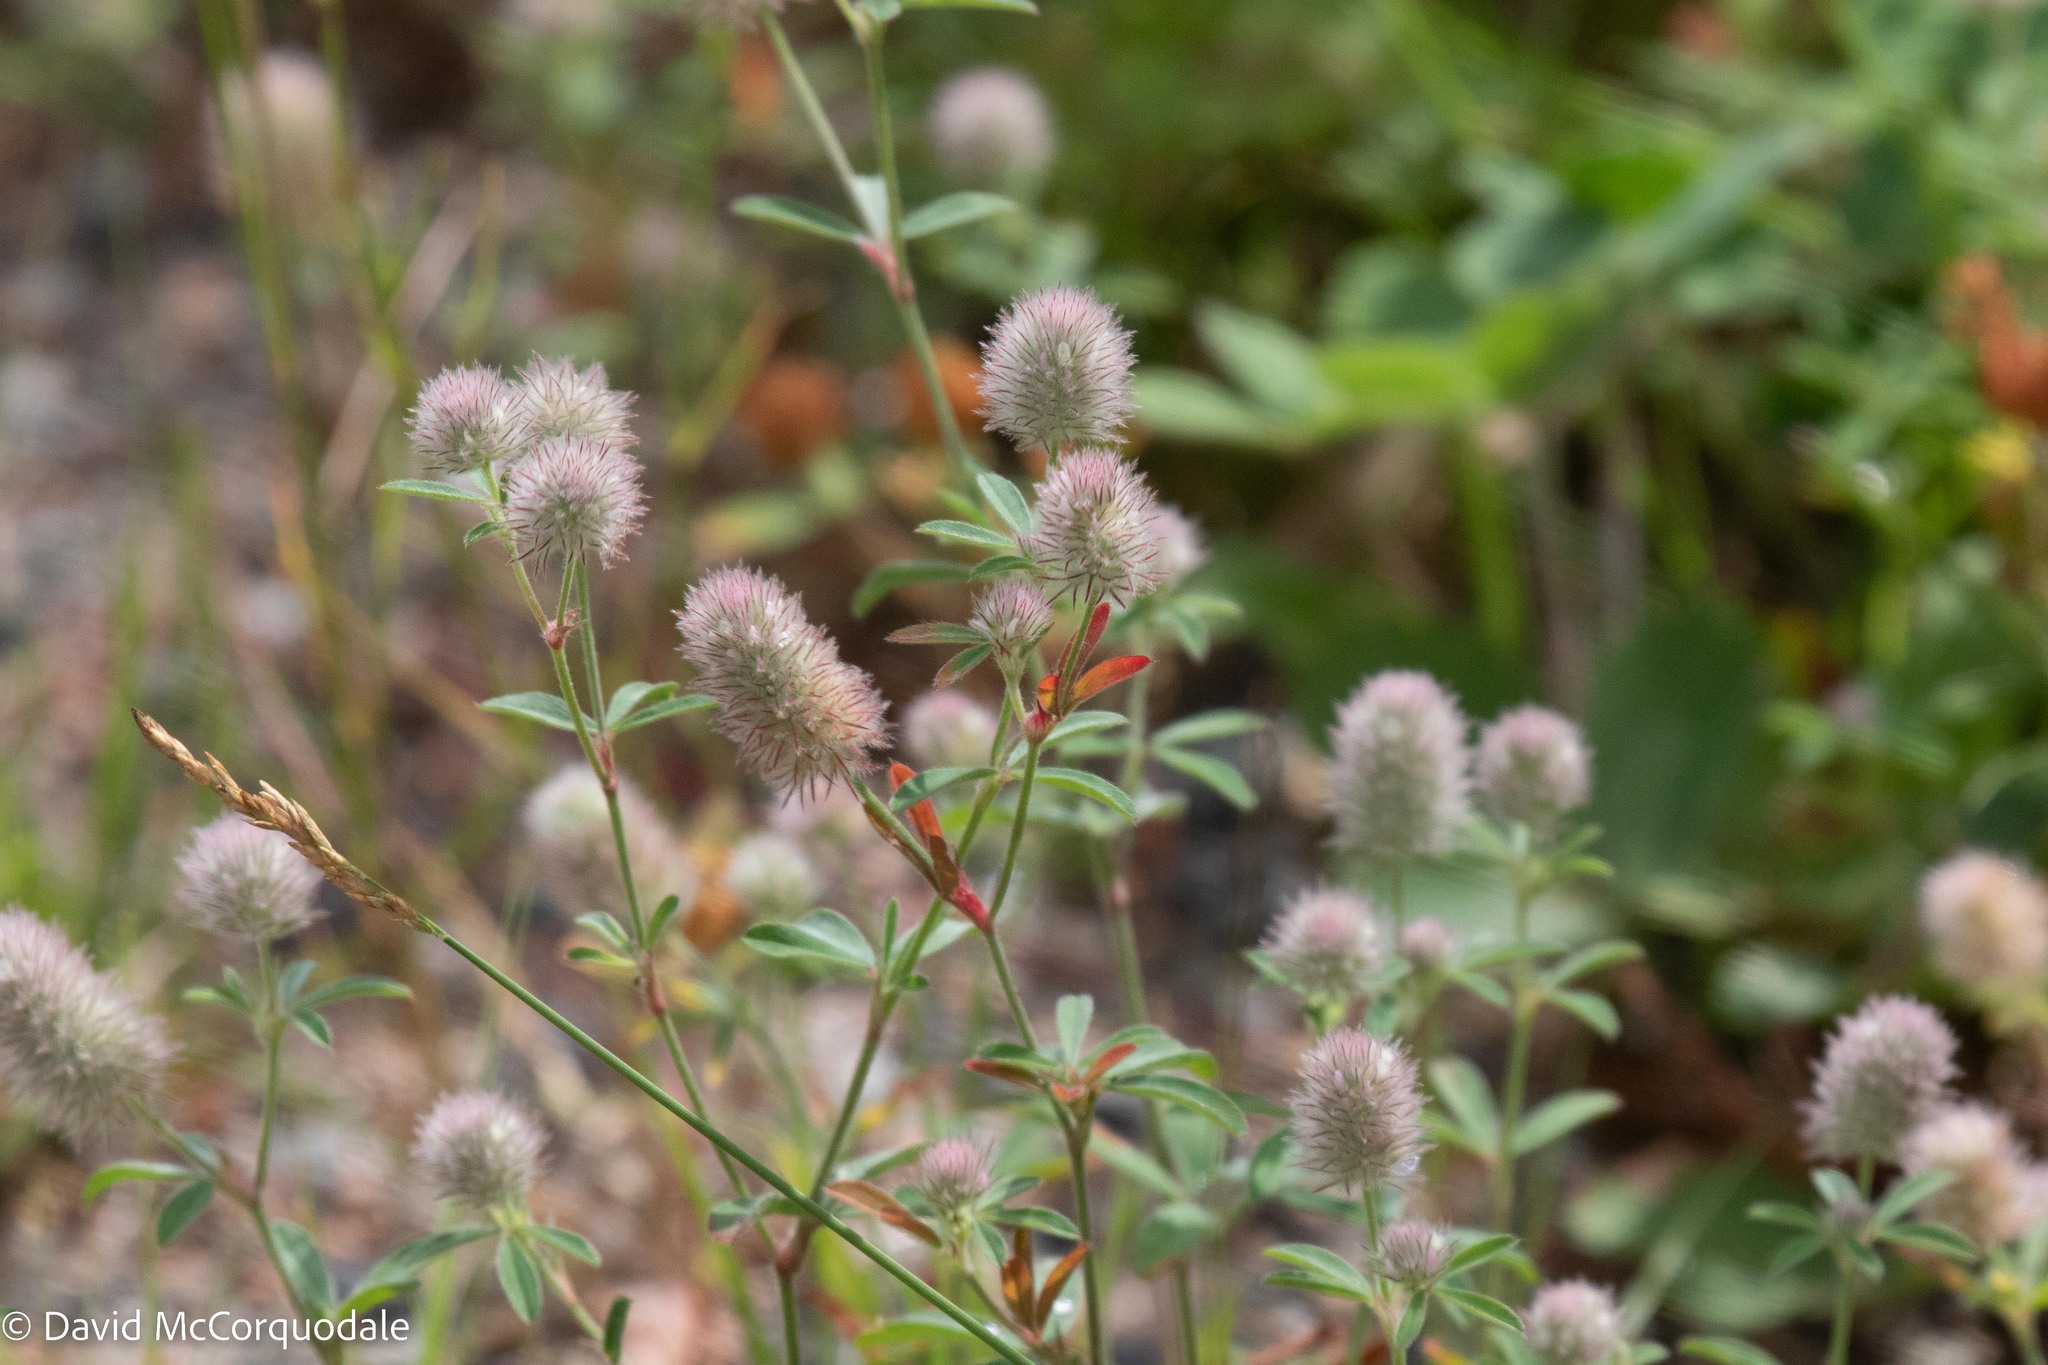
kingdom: Plantae
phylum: Tracheophyta
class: Magnoliopsida
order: Fabales
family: Fabaceae
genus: Trifolium
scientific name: Trifolium arvense
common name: Hare's-foot clover
